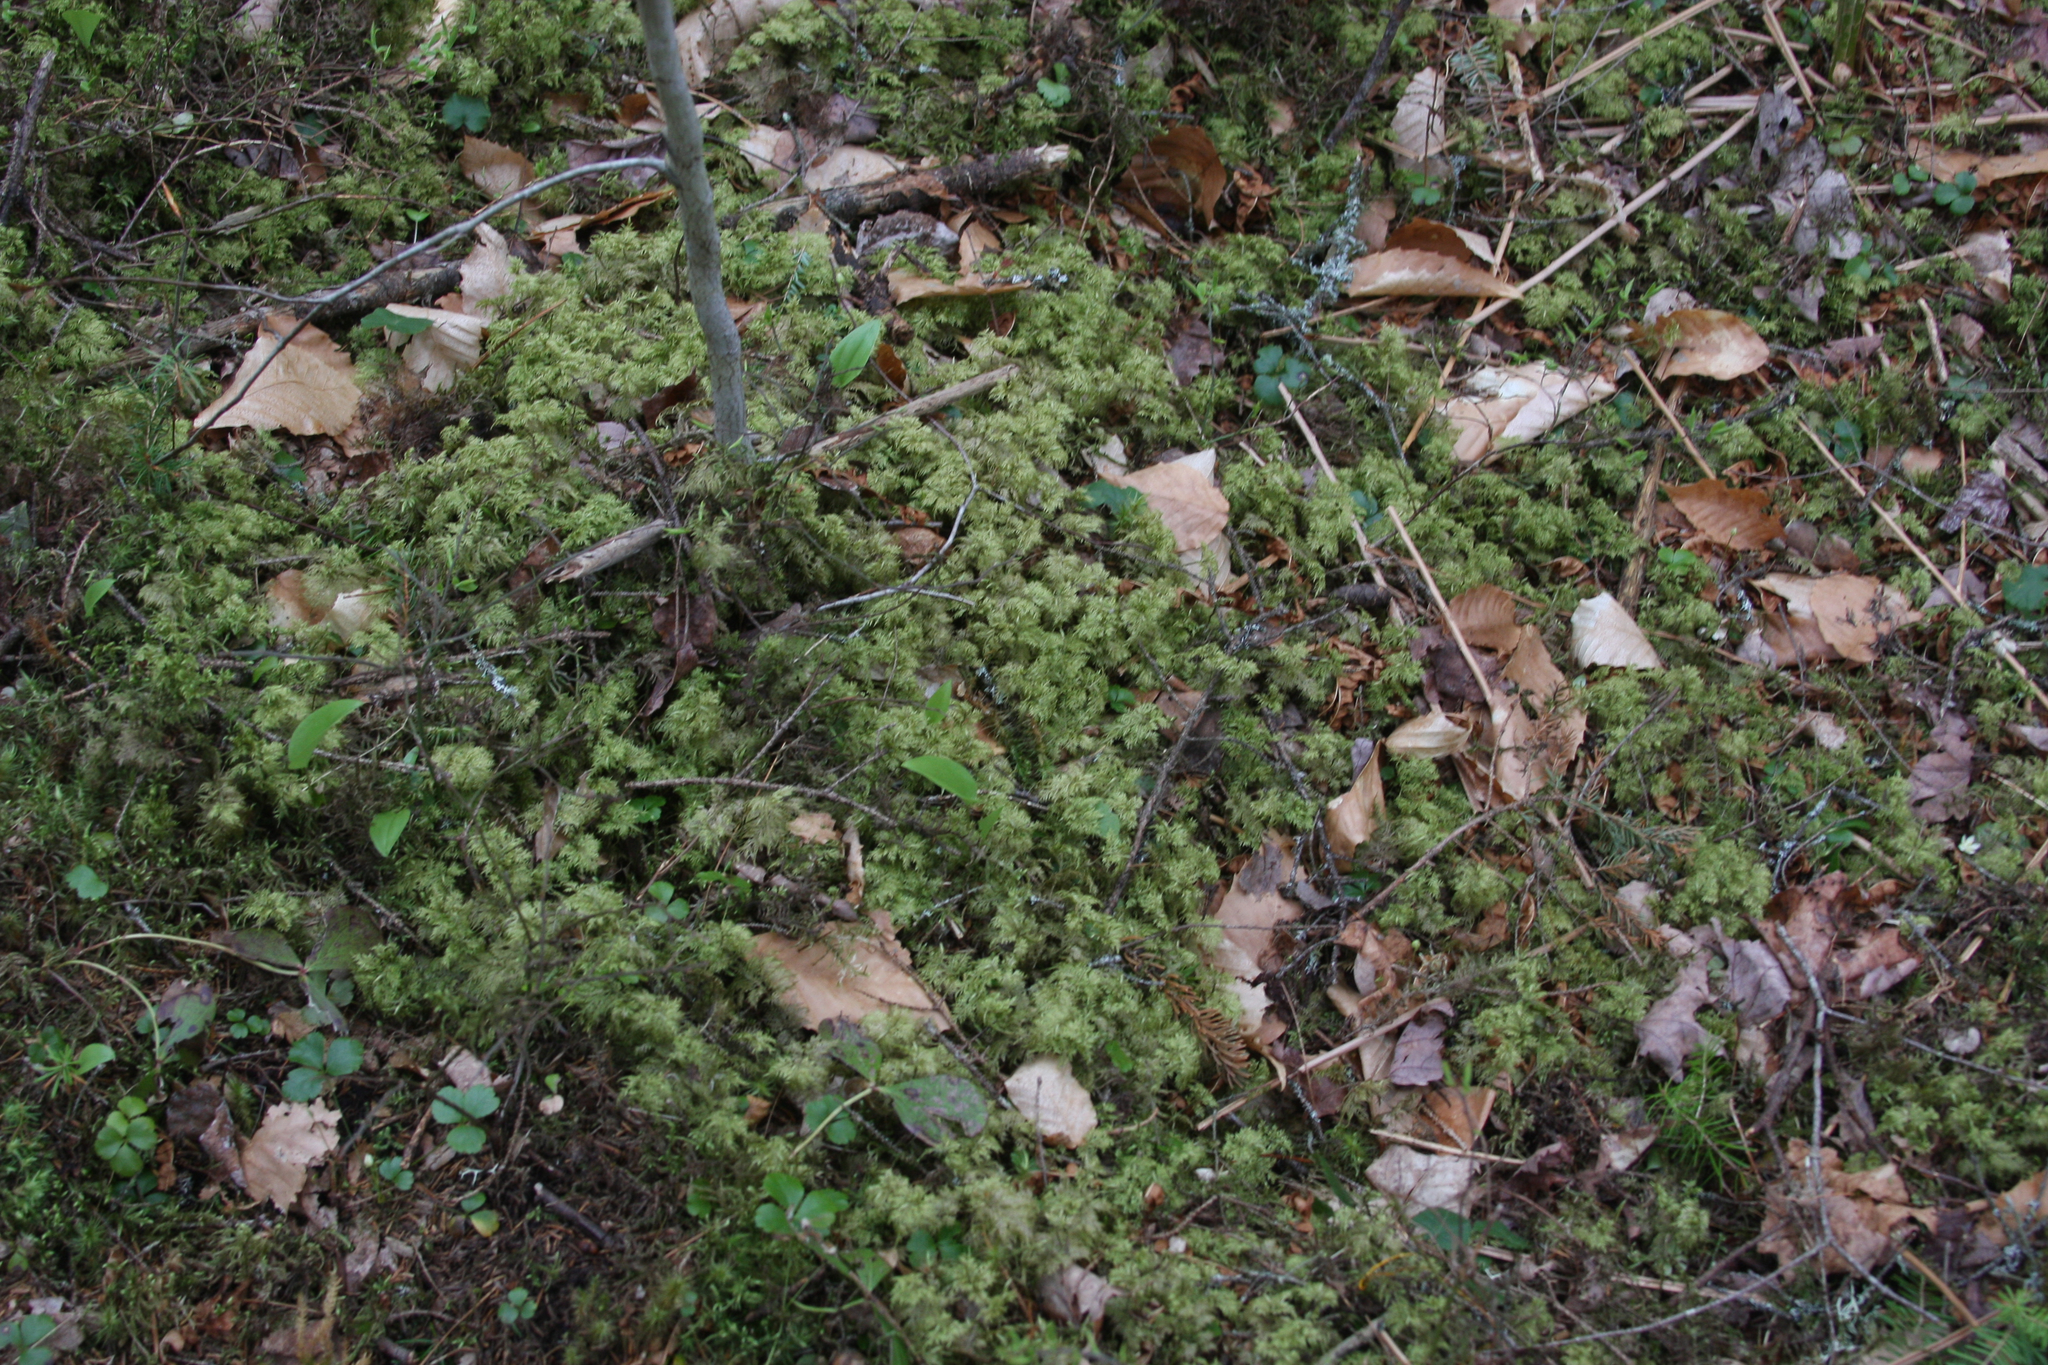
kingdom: Plantae
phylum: Bryophyta
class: Bryopsida
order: Hypnales
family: Hylocomiaceae
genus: Hylocomium
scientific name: Hylocomium splendens
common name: Stairstep moss
